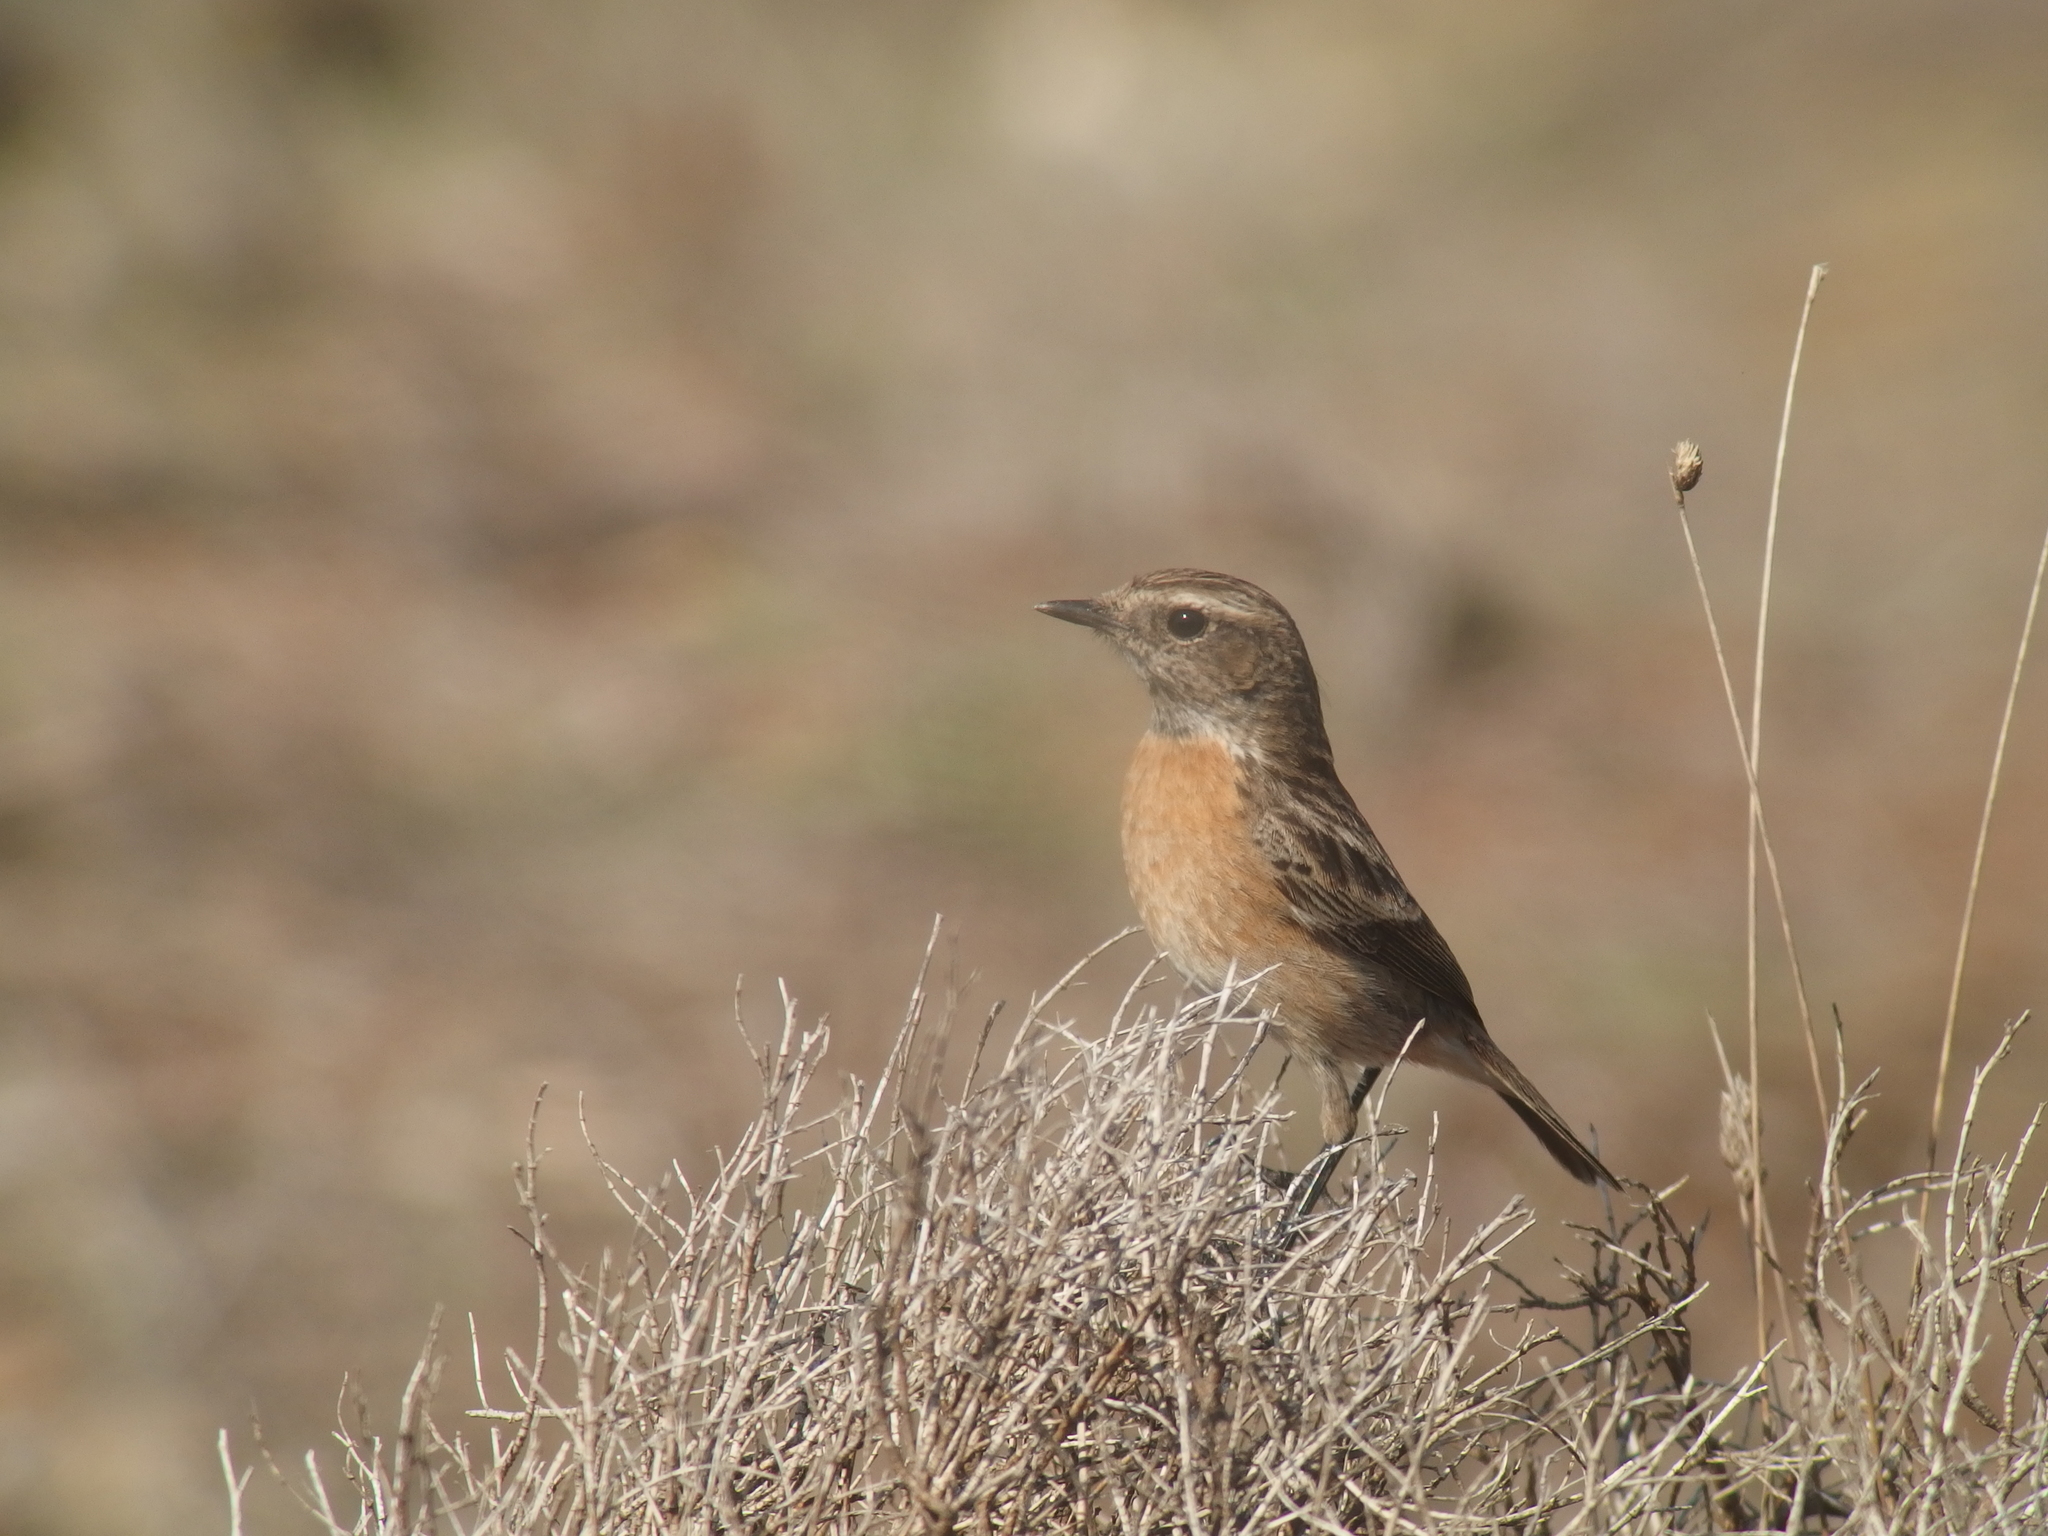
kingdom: Animalia
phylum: Chordata
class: Aves
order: Passeriformes
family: Muscicapidae
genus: Saxicola
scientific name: Saxicola rubicola
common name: European stonechat
